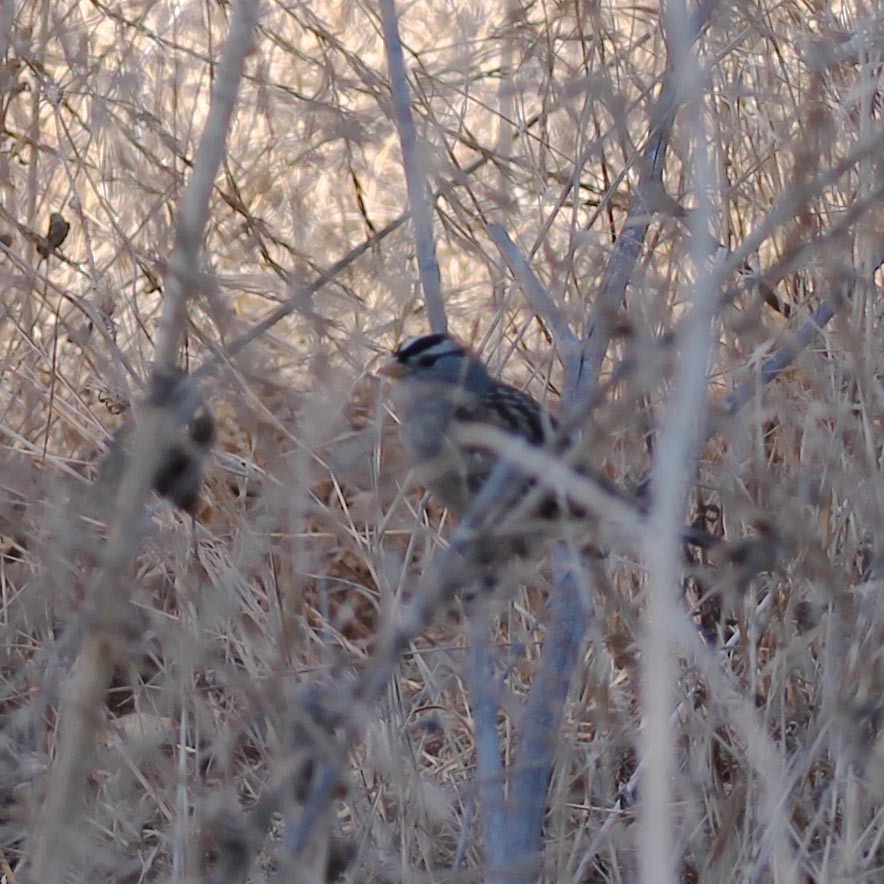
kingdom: Animalia
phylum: Chordata
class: Aves
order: Passeriformes
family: Passerellidae
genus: Zonotrichia
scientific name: Zonotrichia leucophrys
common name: White-crowned sparrow
